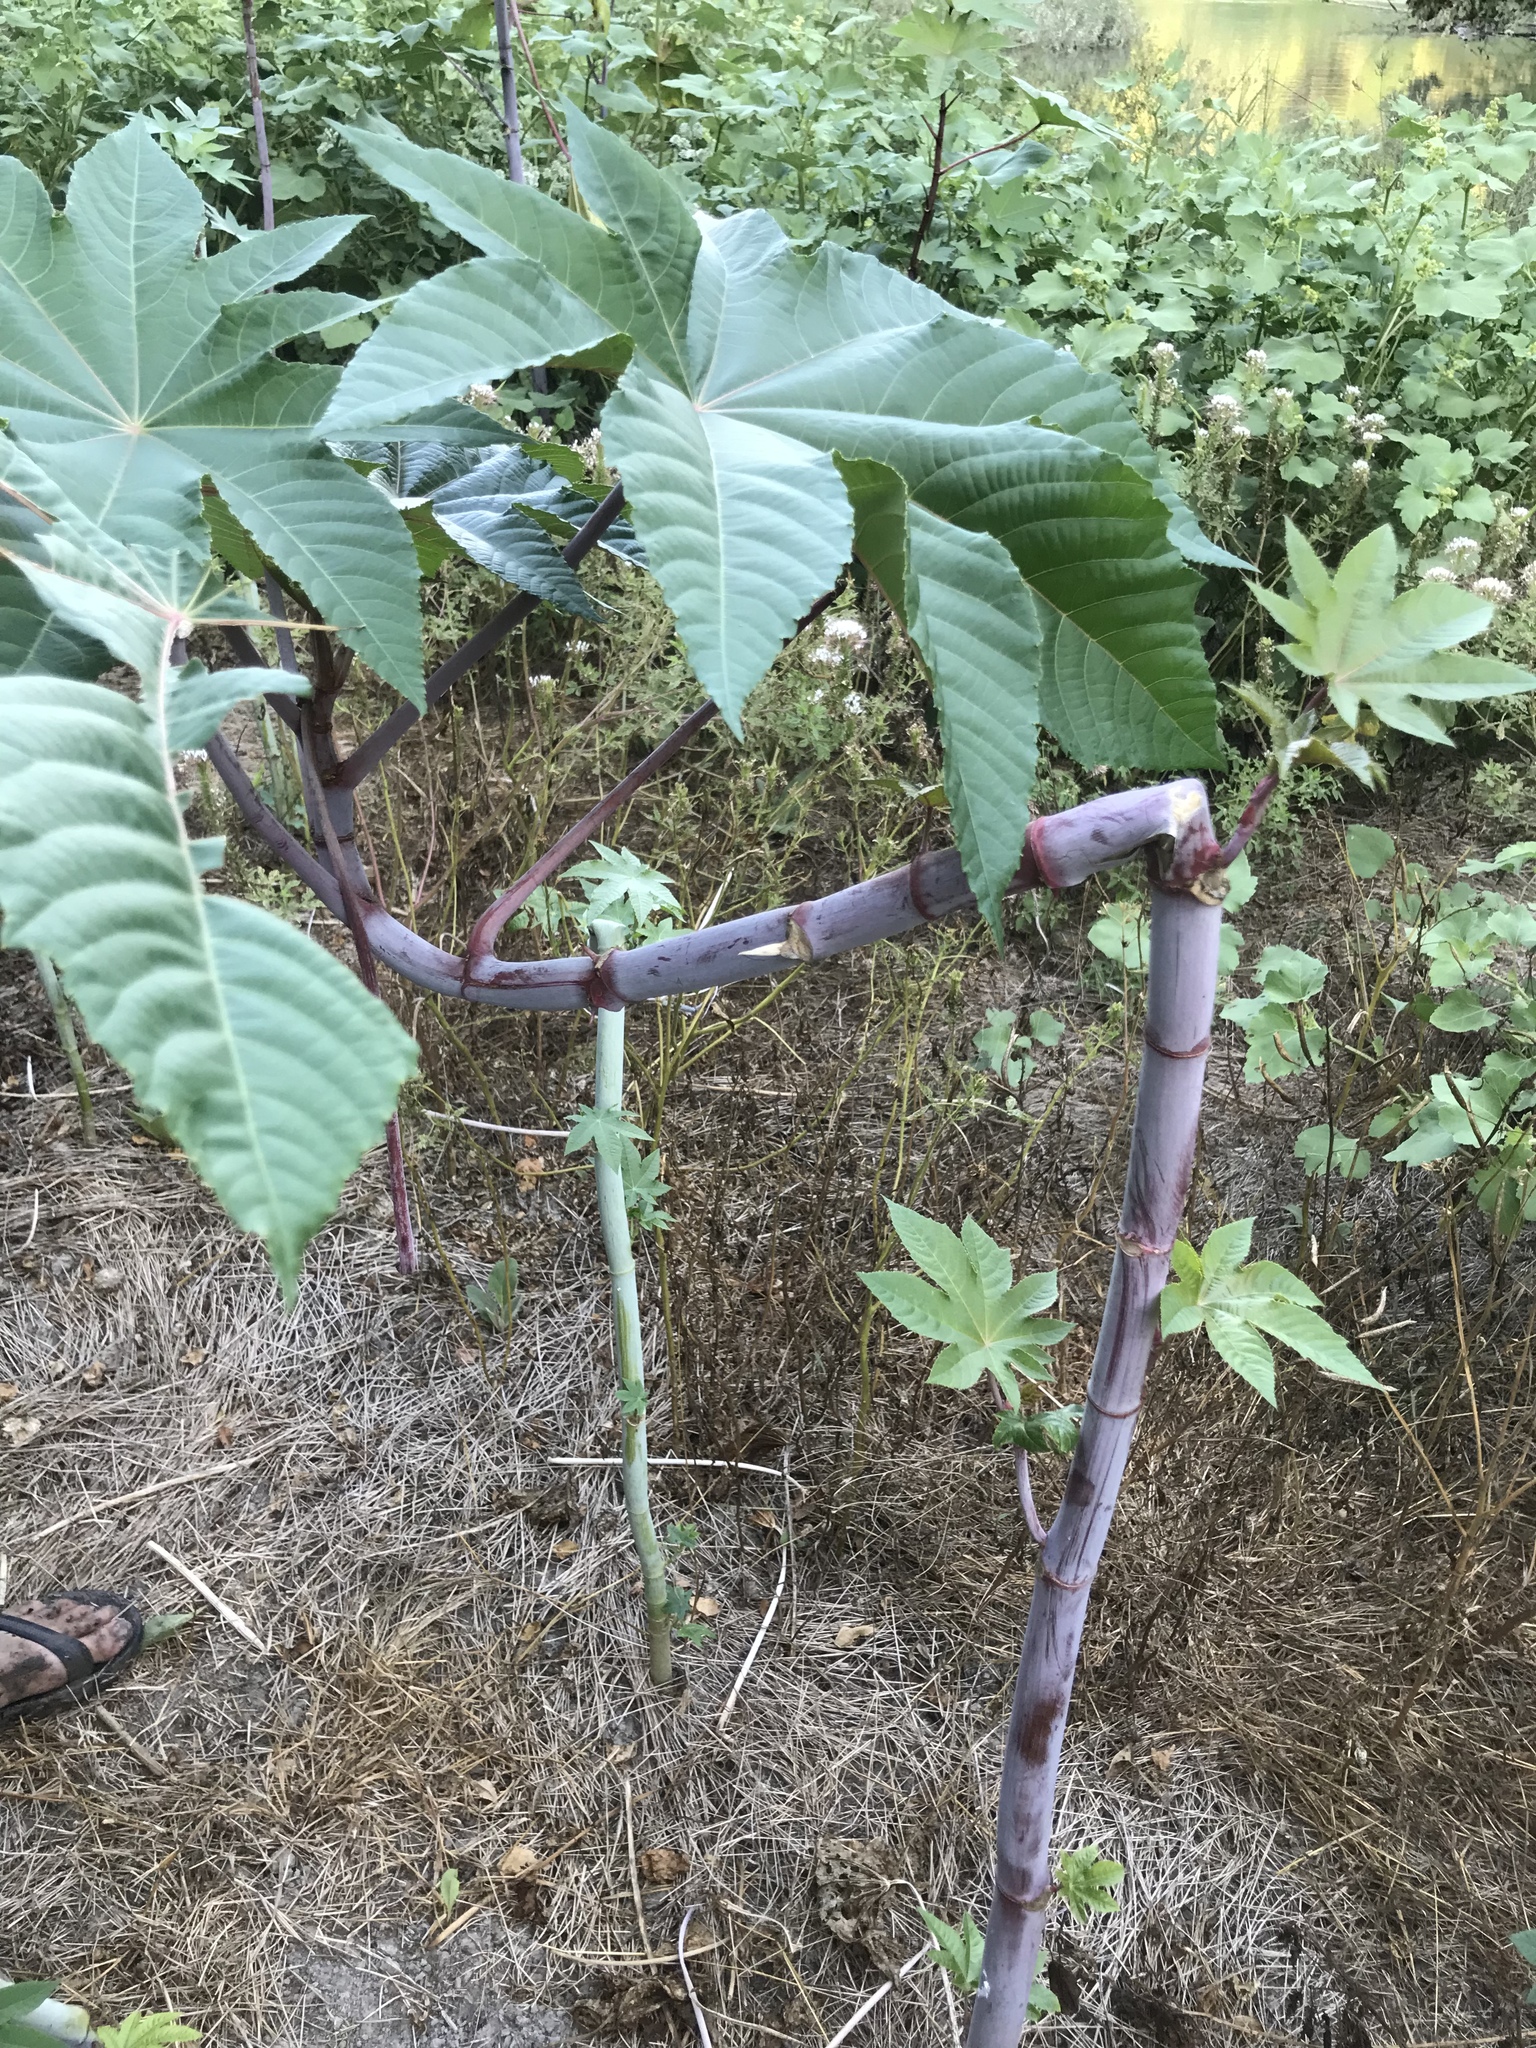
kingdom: Plantae
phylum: Tracheophyta
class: Magnoliopsida
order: Malpighiales
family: Euphorbiaceae
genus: Ricinus
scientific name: Ricinus communis
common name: Castor-oil-plant
